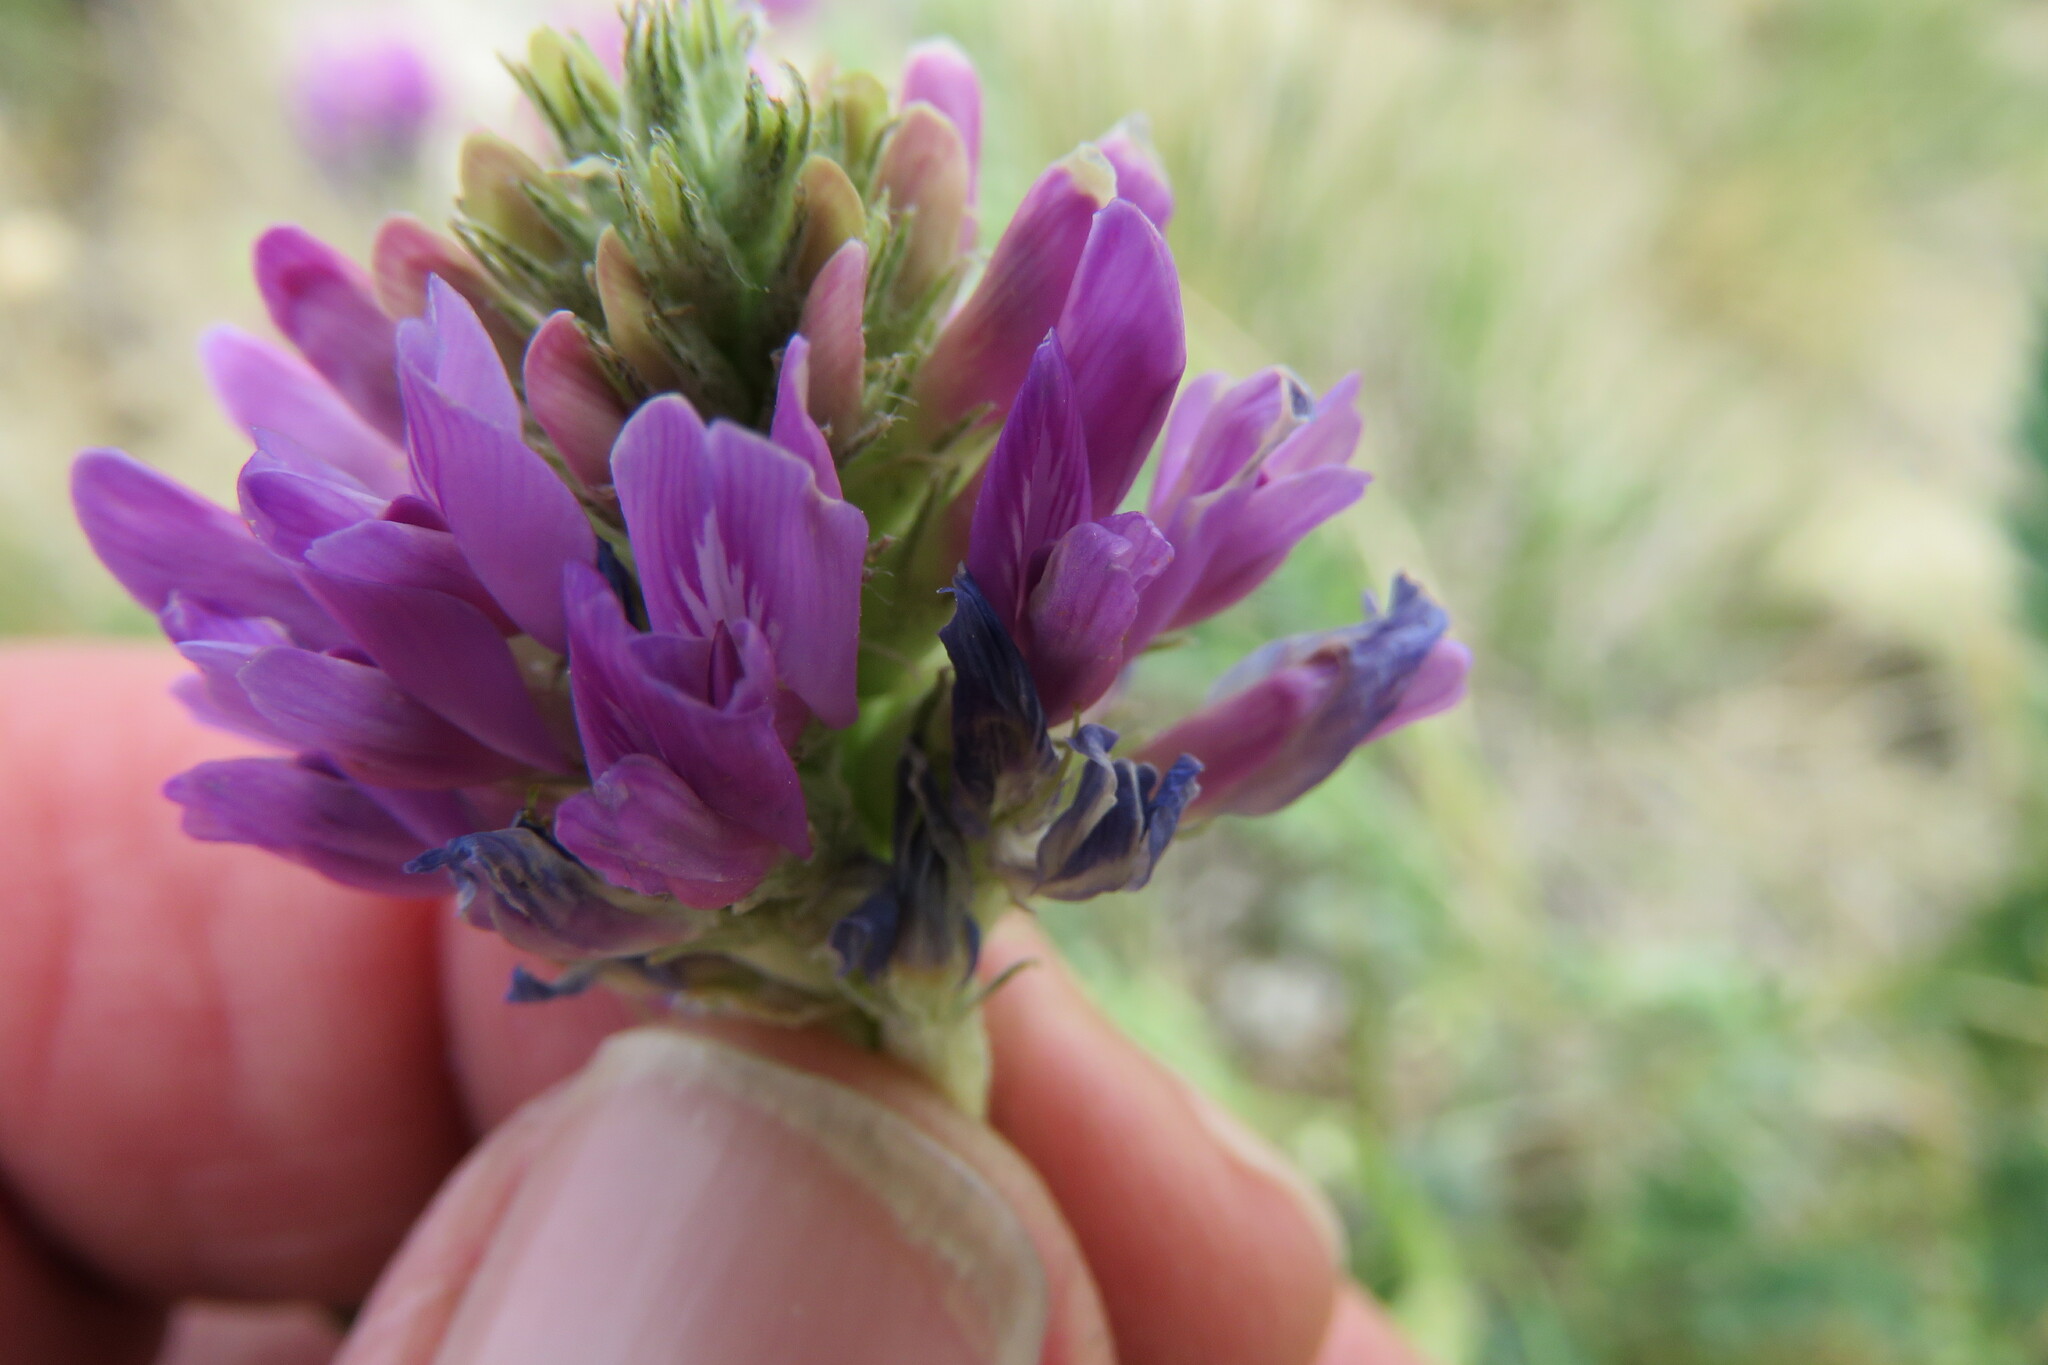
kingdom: Plantae
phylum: Tracheophyta
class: Magnoliopsida
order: Fabales
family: Fabaceae
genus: Astragalus
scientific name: Astragalus laxmannii
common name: Laxmann's milk-vetch
